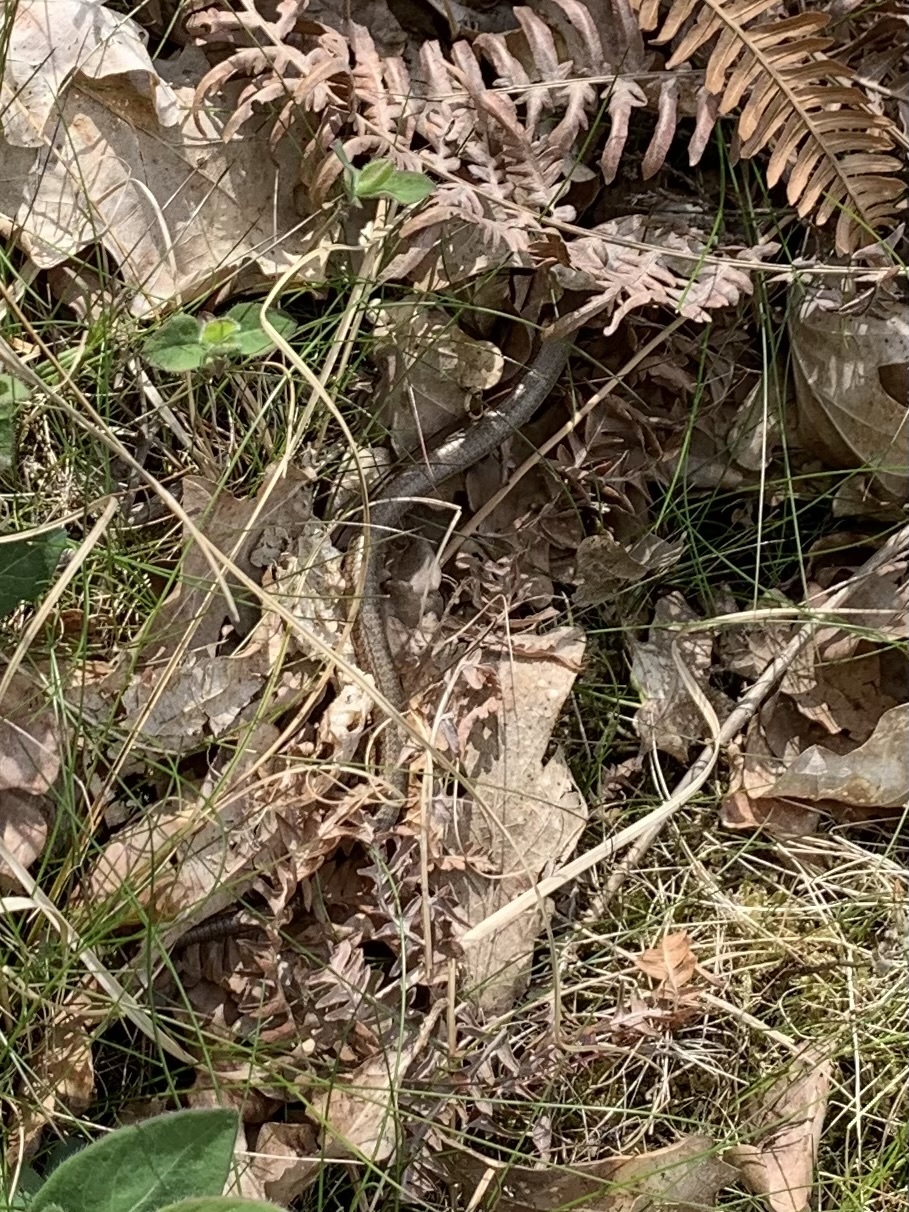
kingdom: Animalia
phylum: Chordata
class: Squamata
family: Anguidae
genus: Anguis
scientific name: Anguis fragilis
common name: Slow worm
